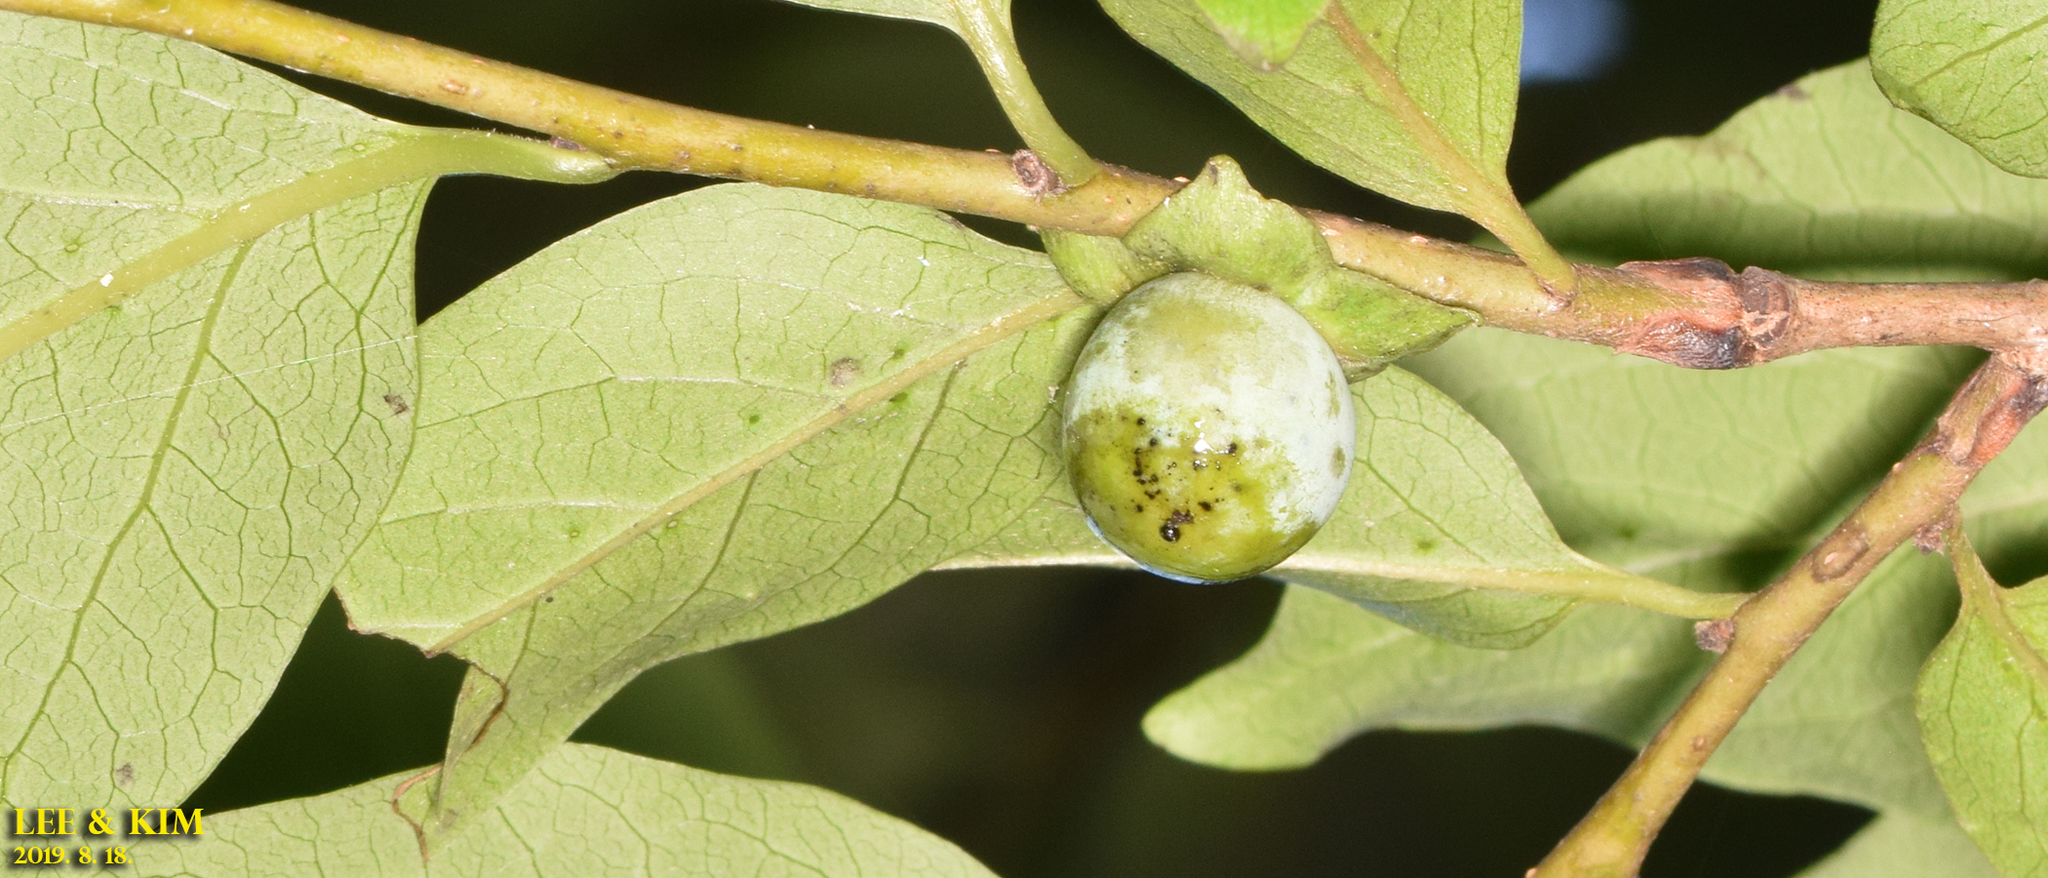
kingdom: Plantae
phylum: Tracheophyta
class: Magnoliopsida
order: Ericales
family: Ebenaceae
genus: Diospyros
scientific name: Diospyros lotus
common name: Date-plum
